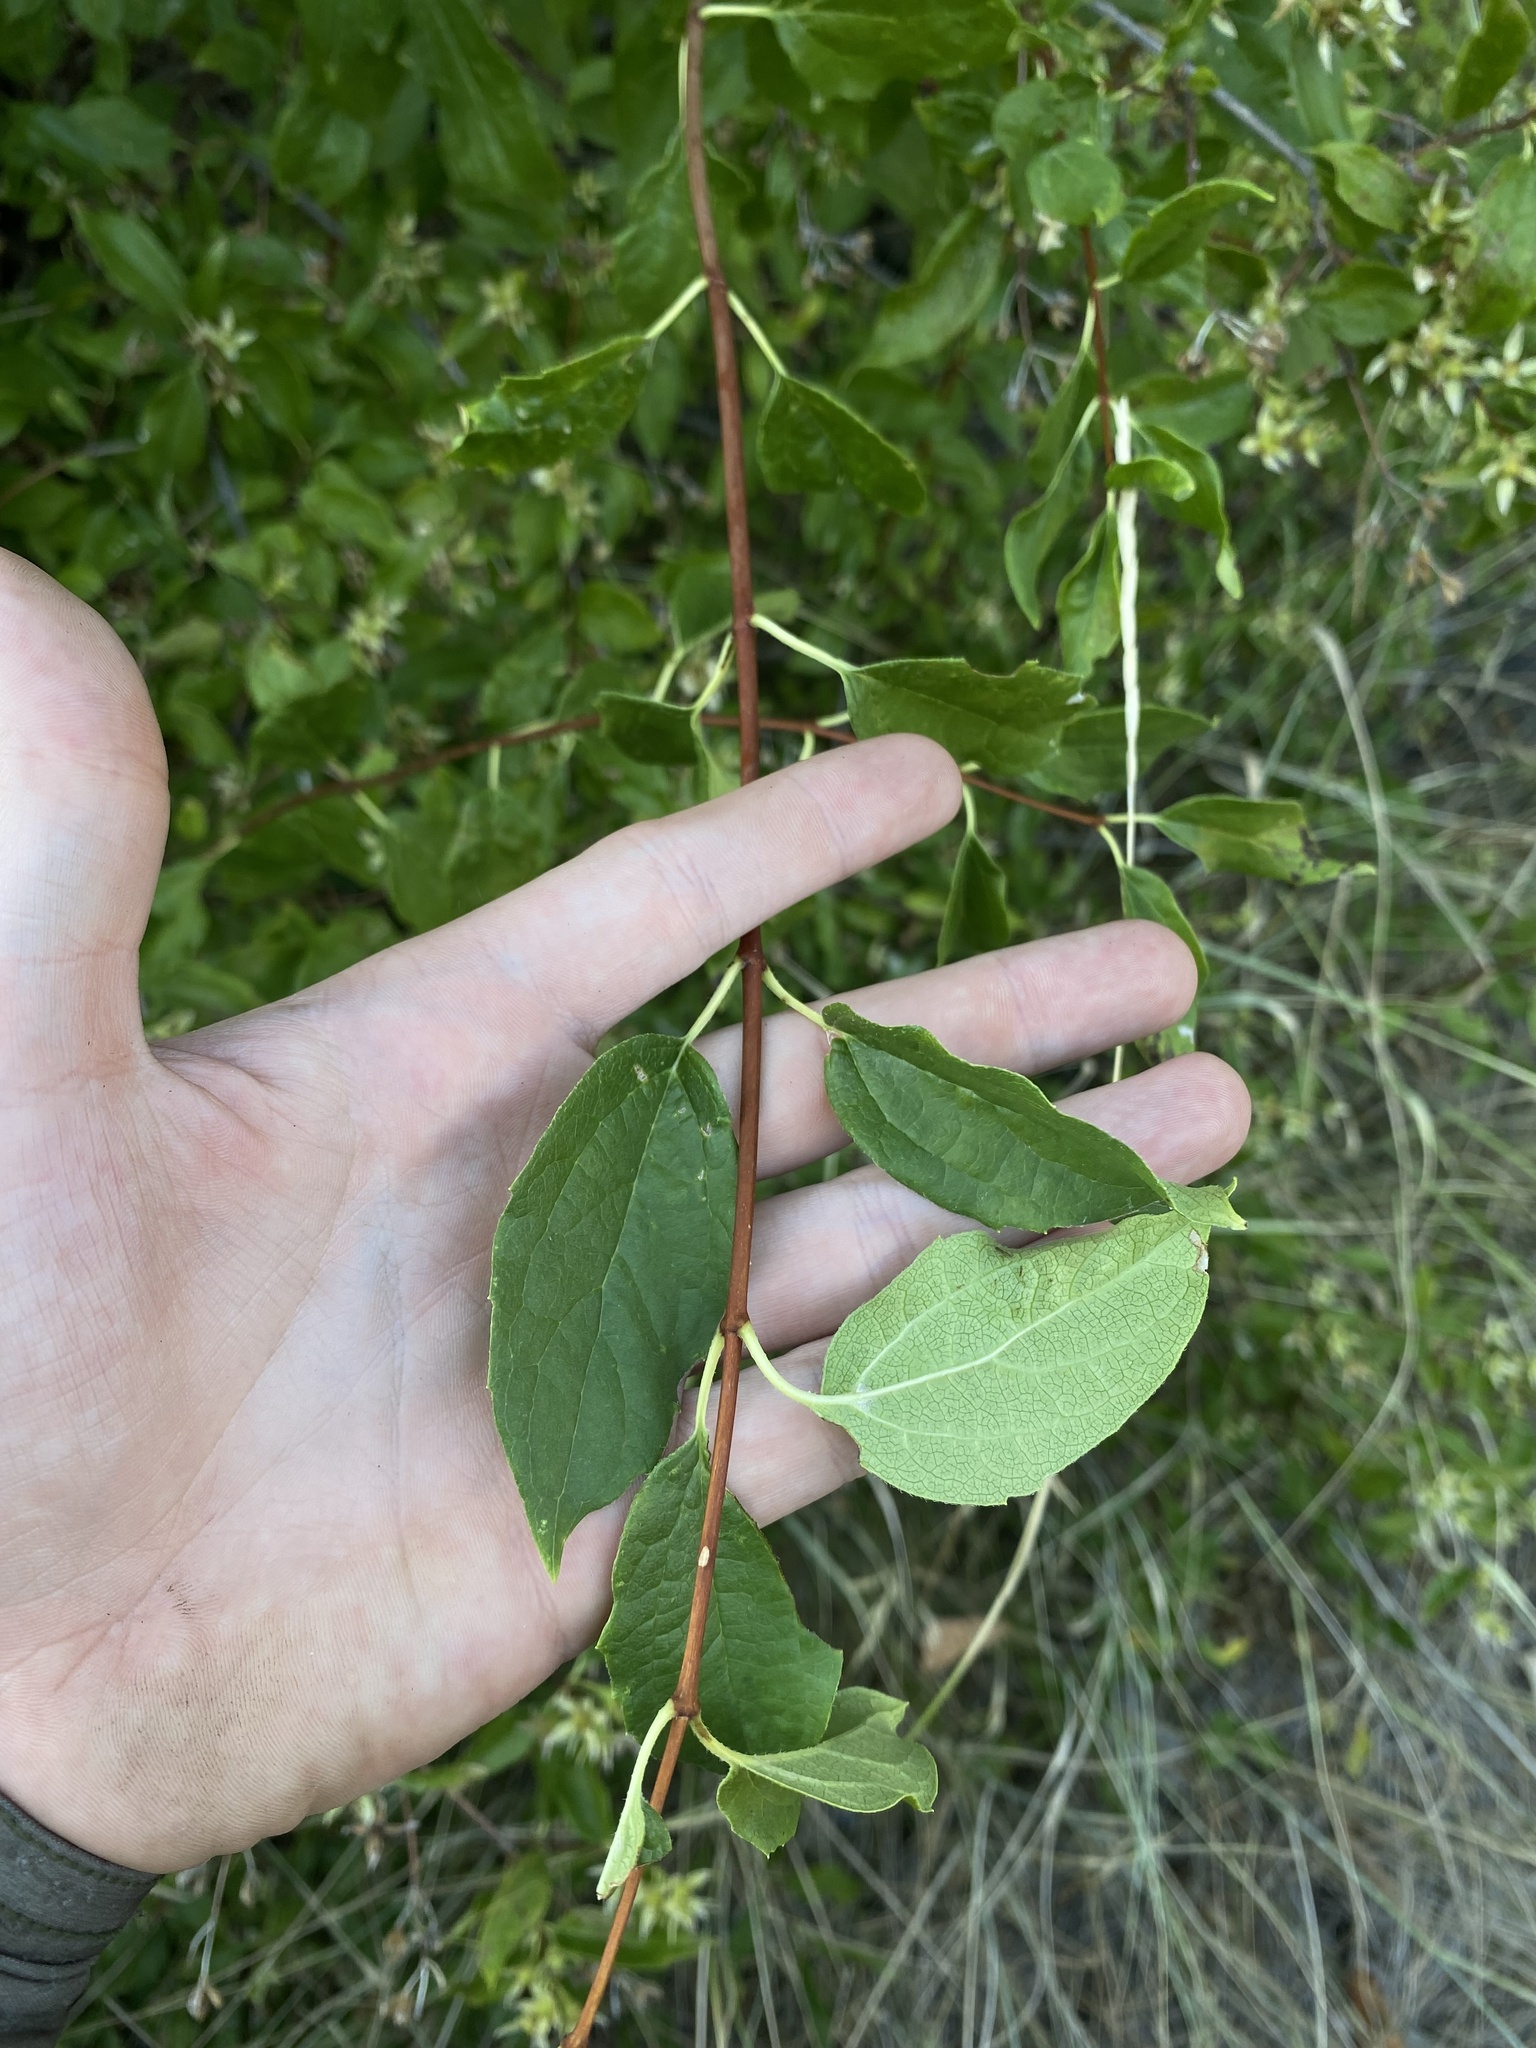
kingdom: Plantae
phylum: Tracheophyta
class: Magnoliopsida
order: Cornales
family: Hydrangeaceae
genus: Philadelphus
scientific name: Philadelphus lewisii
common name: Lewis's mock orange
